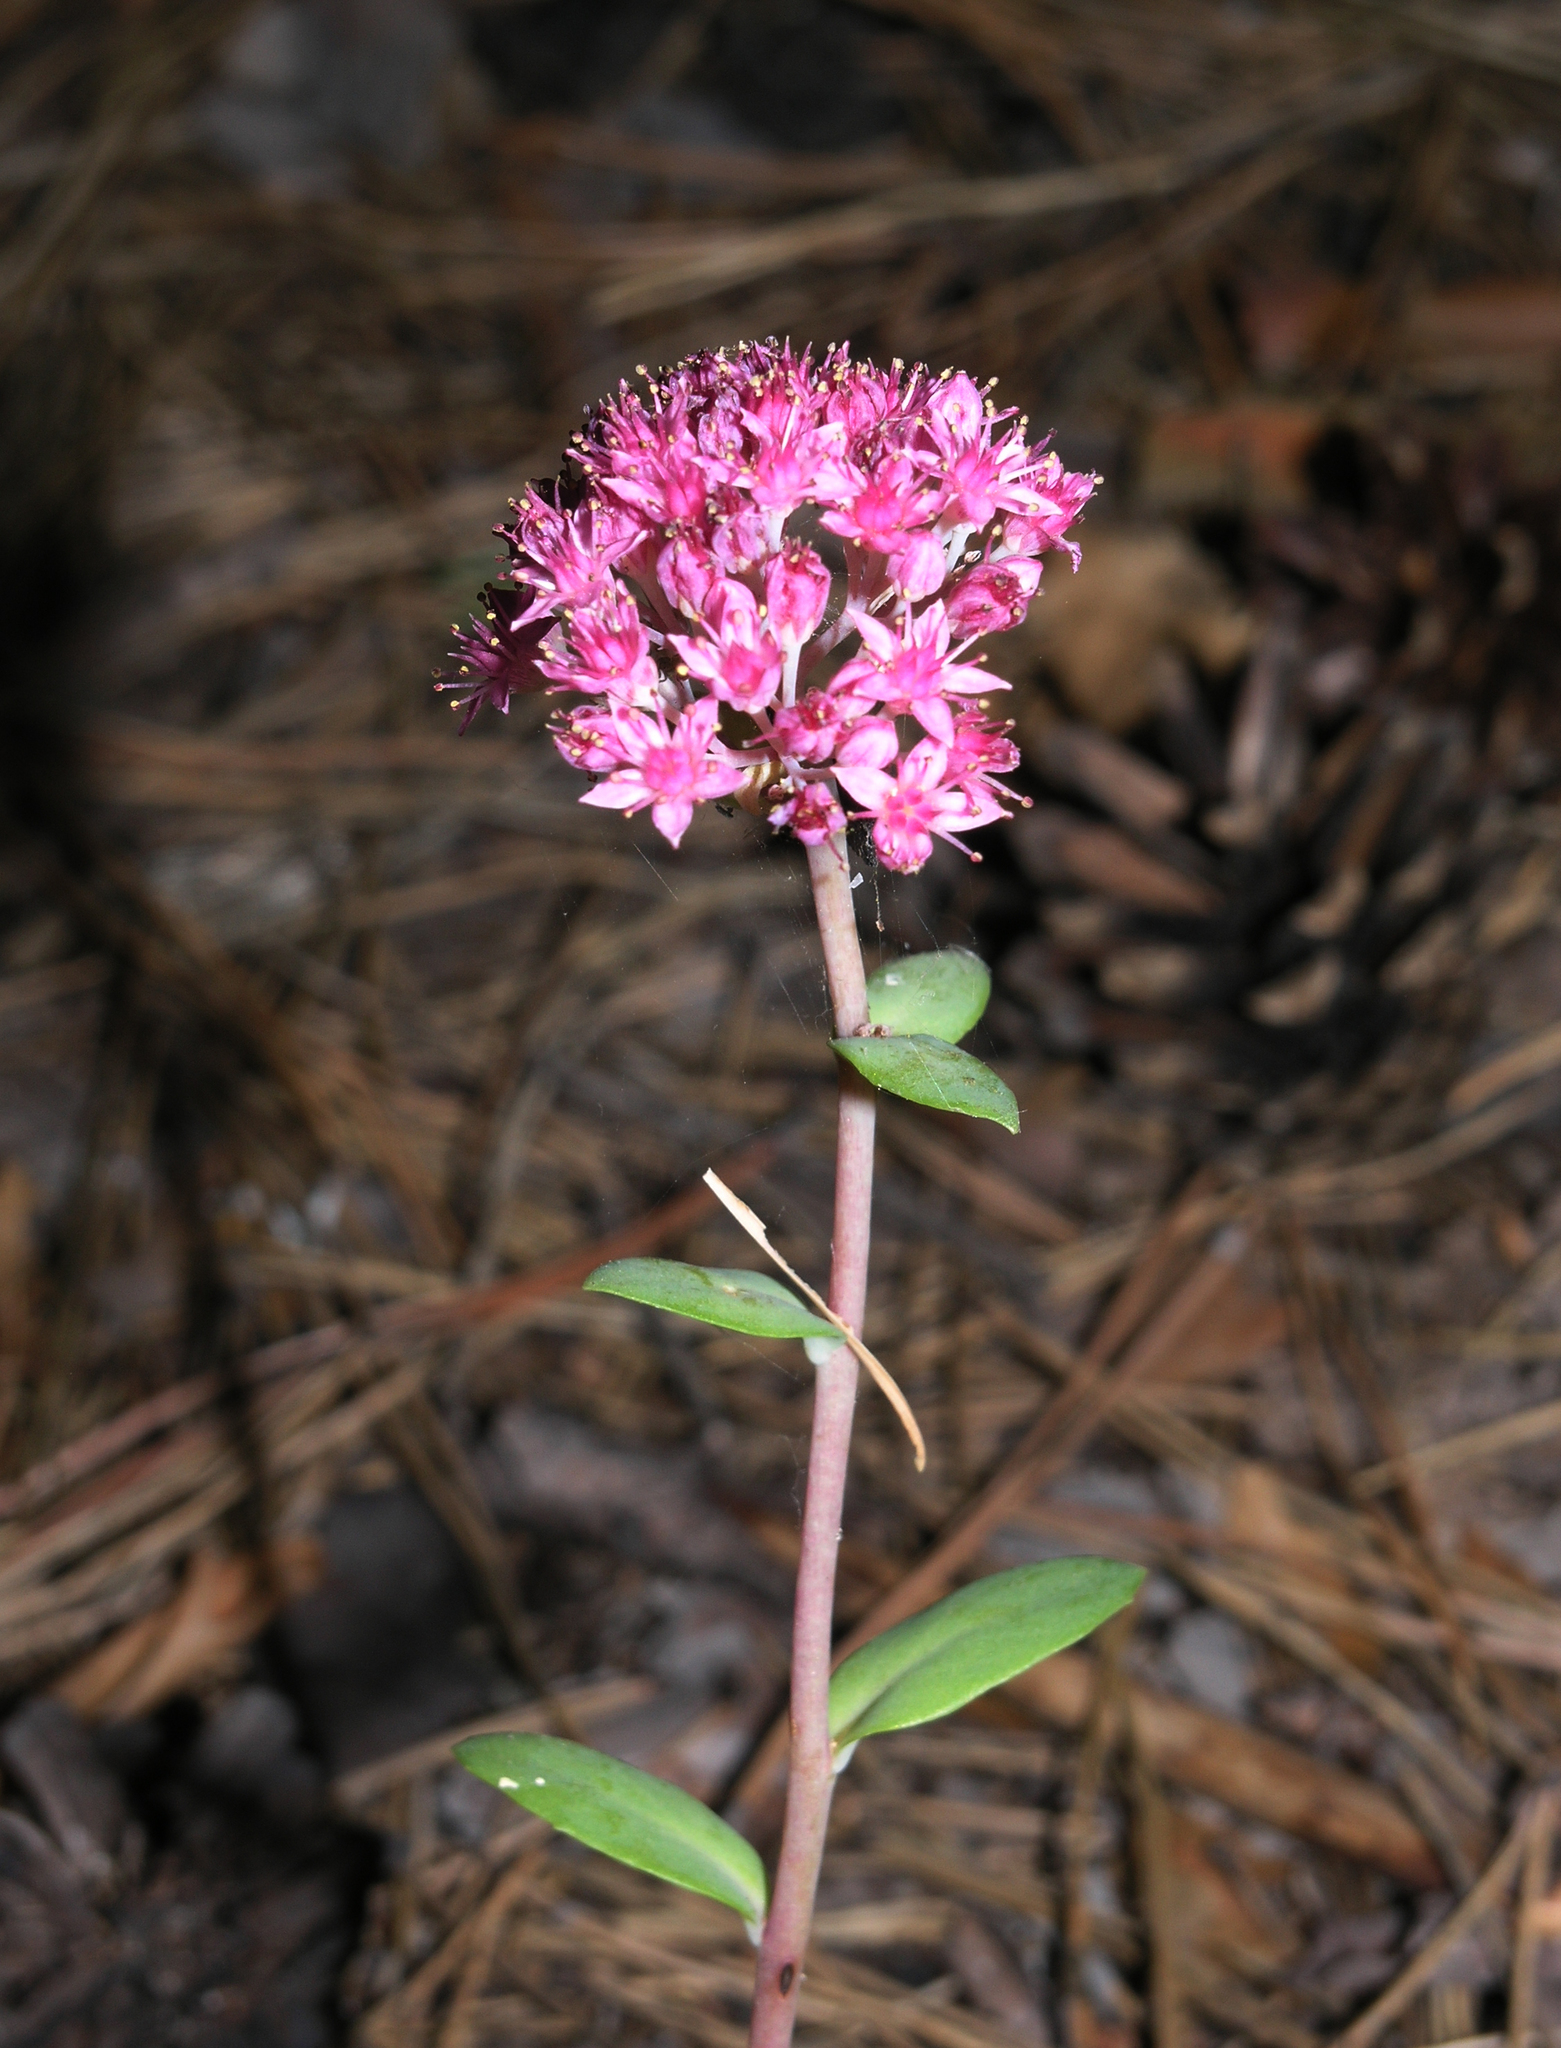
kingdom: Plantae
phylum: Tracheophyta
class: Magnoliopsida
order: Saxifragales
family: Crassulaceae
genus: Hylotelephium
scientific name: Hylotelephium telephium
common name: Live-forever
